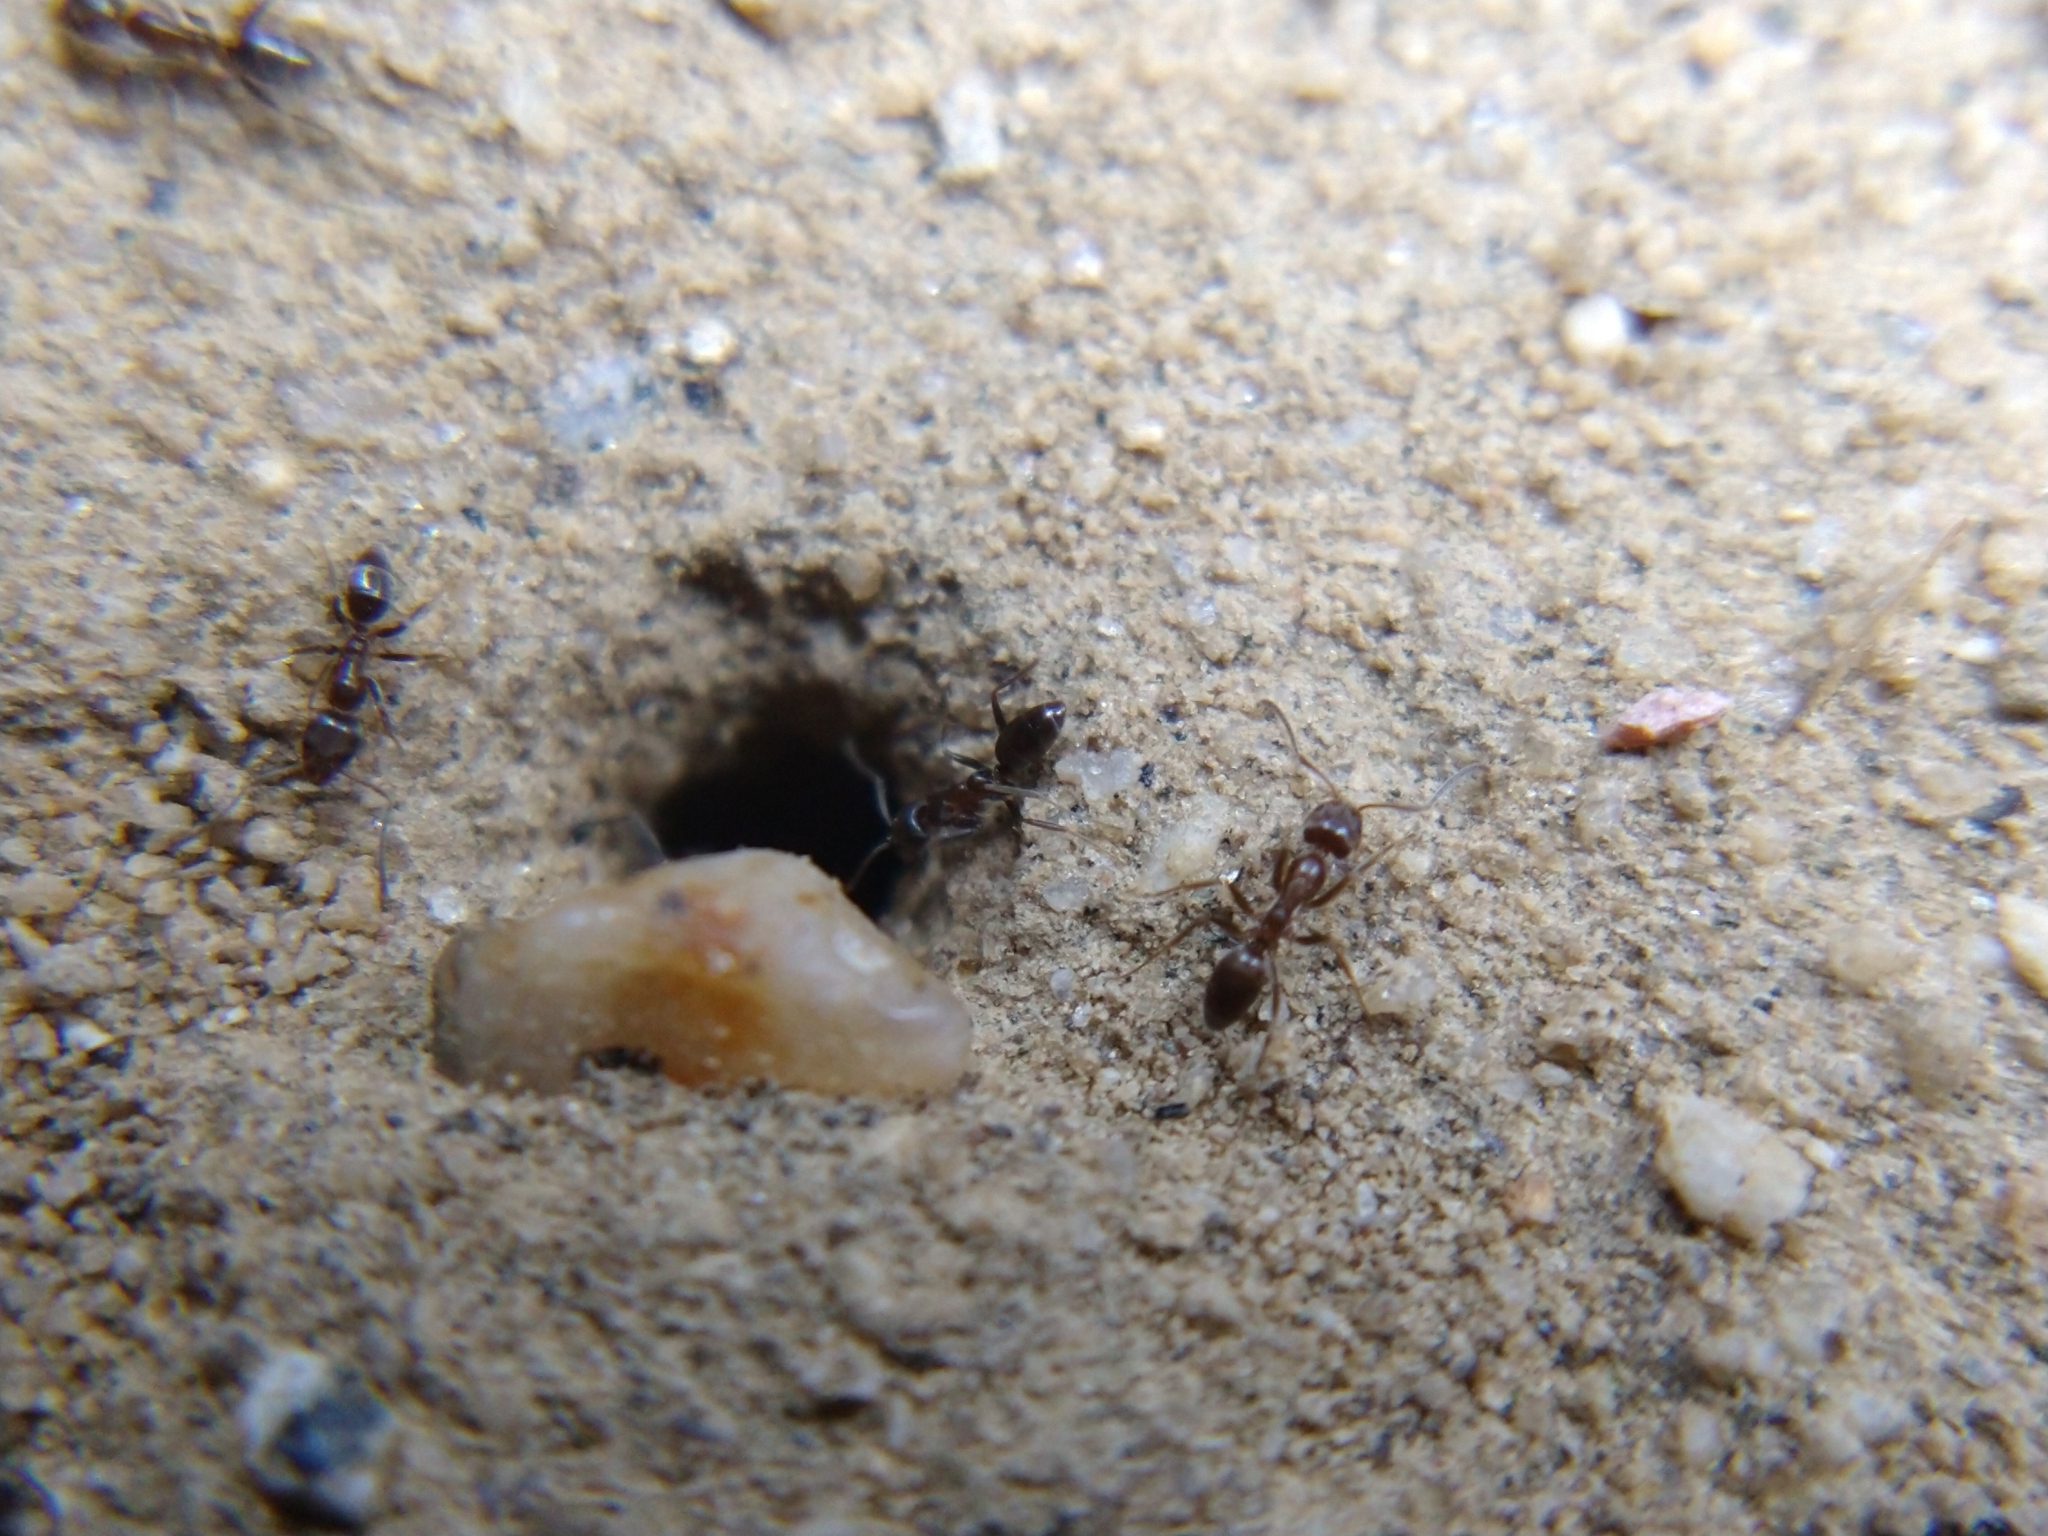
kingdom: Animalia
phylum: Arthropoda
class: Insecta
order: Hymenoptera
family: Formicidae
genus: Linepithema
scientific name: Linepithema humile
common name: Argentine ant
